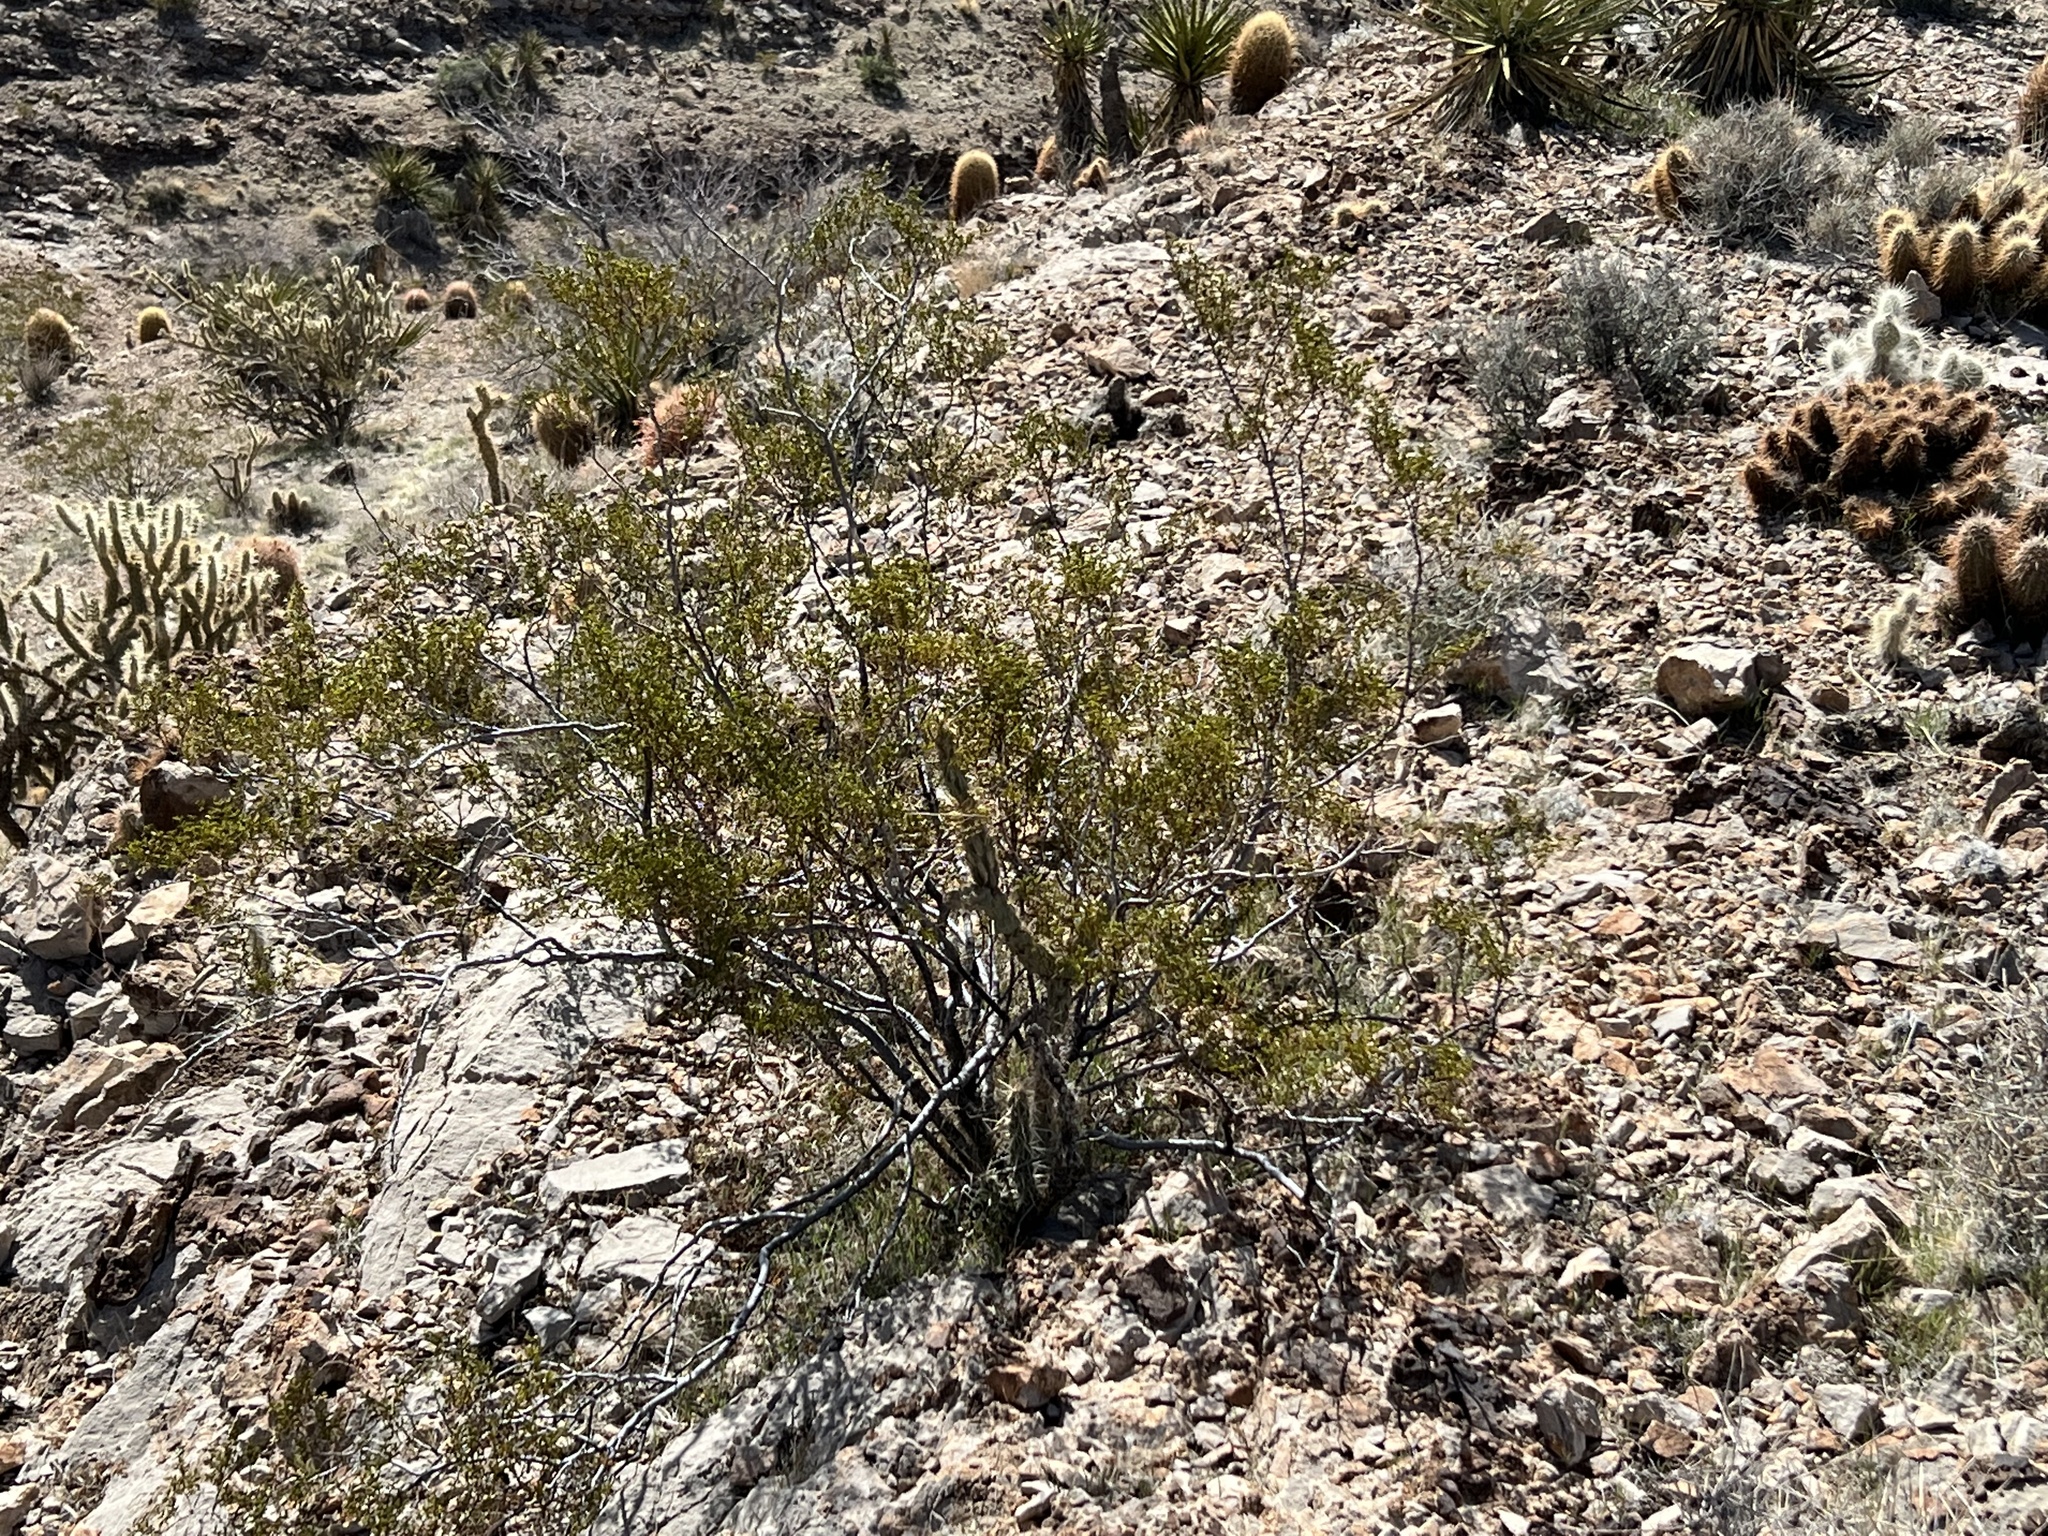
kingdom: Plantae
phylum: Tracheophyta
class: Magnoliopsida
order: Zygophyllales
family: Zygophyllaceae
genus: Larrea
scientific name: Larrea tridentata
